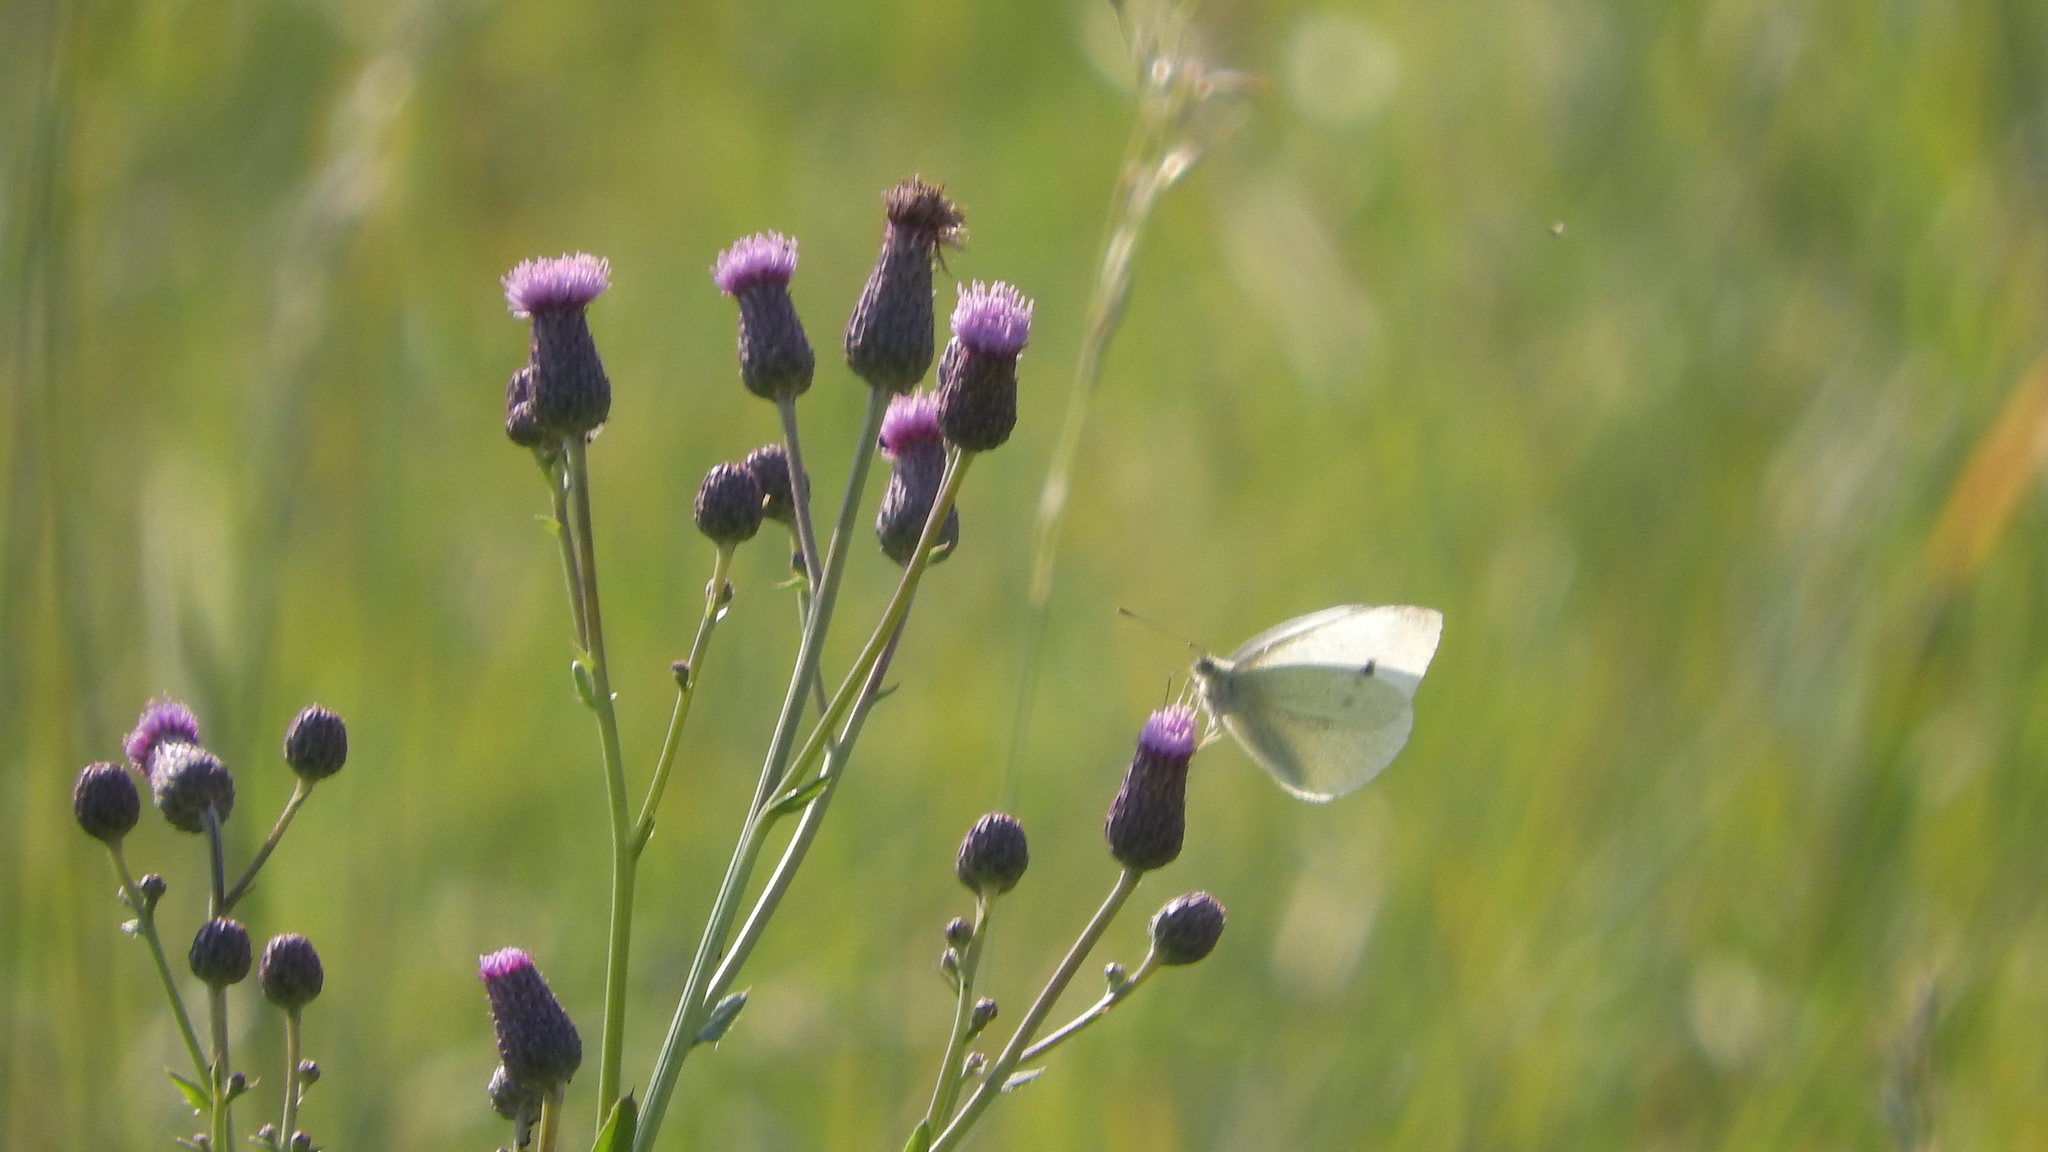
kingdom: Animalia
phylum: Arthropoda
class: Insecta
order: Lepidoptera
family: Pieridae
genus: Pieris
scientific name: Pieris rapae
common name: Small white
